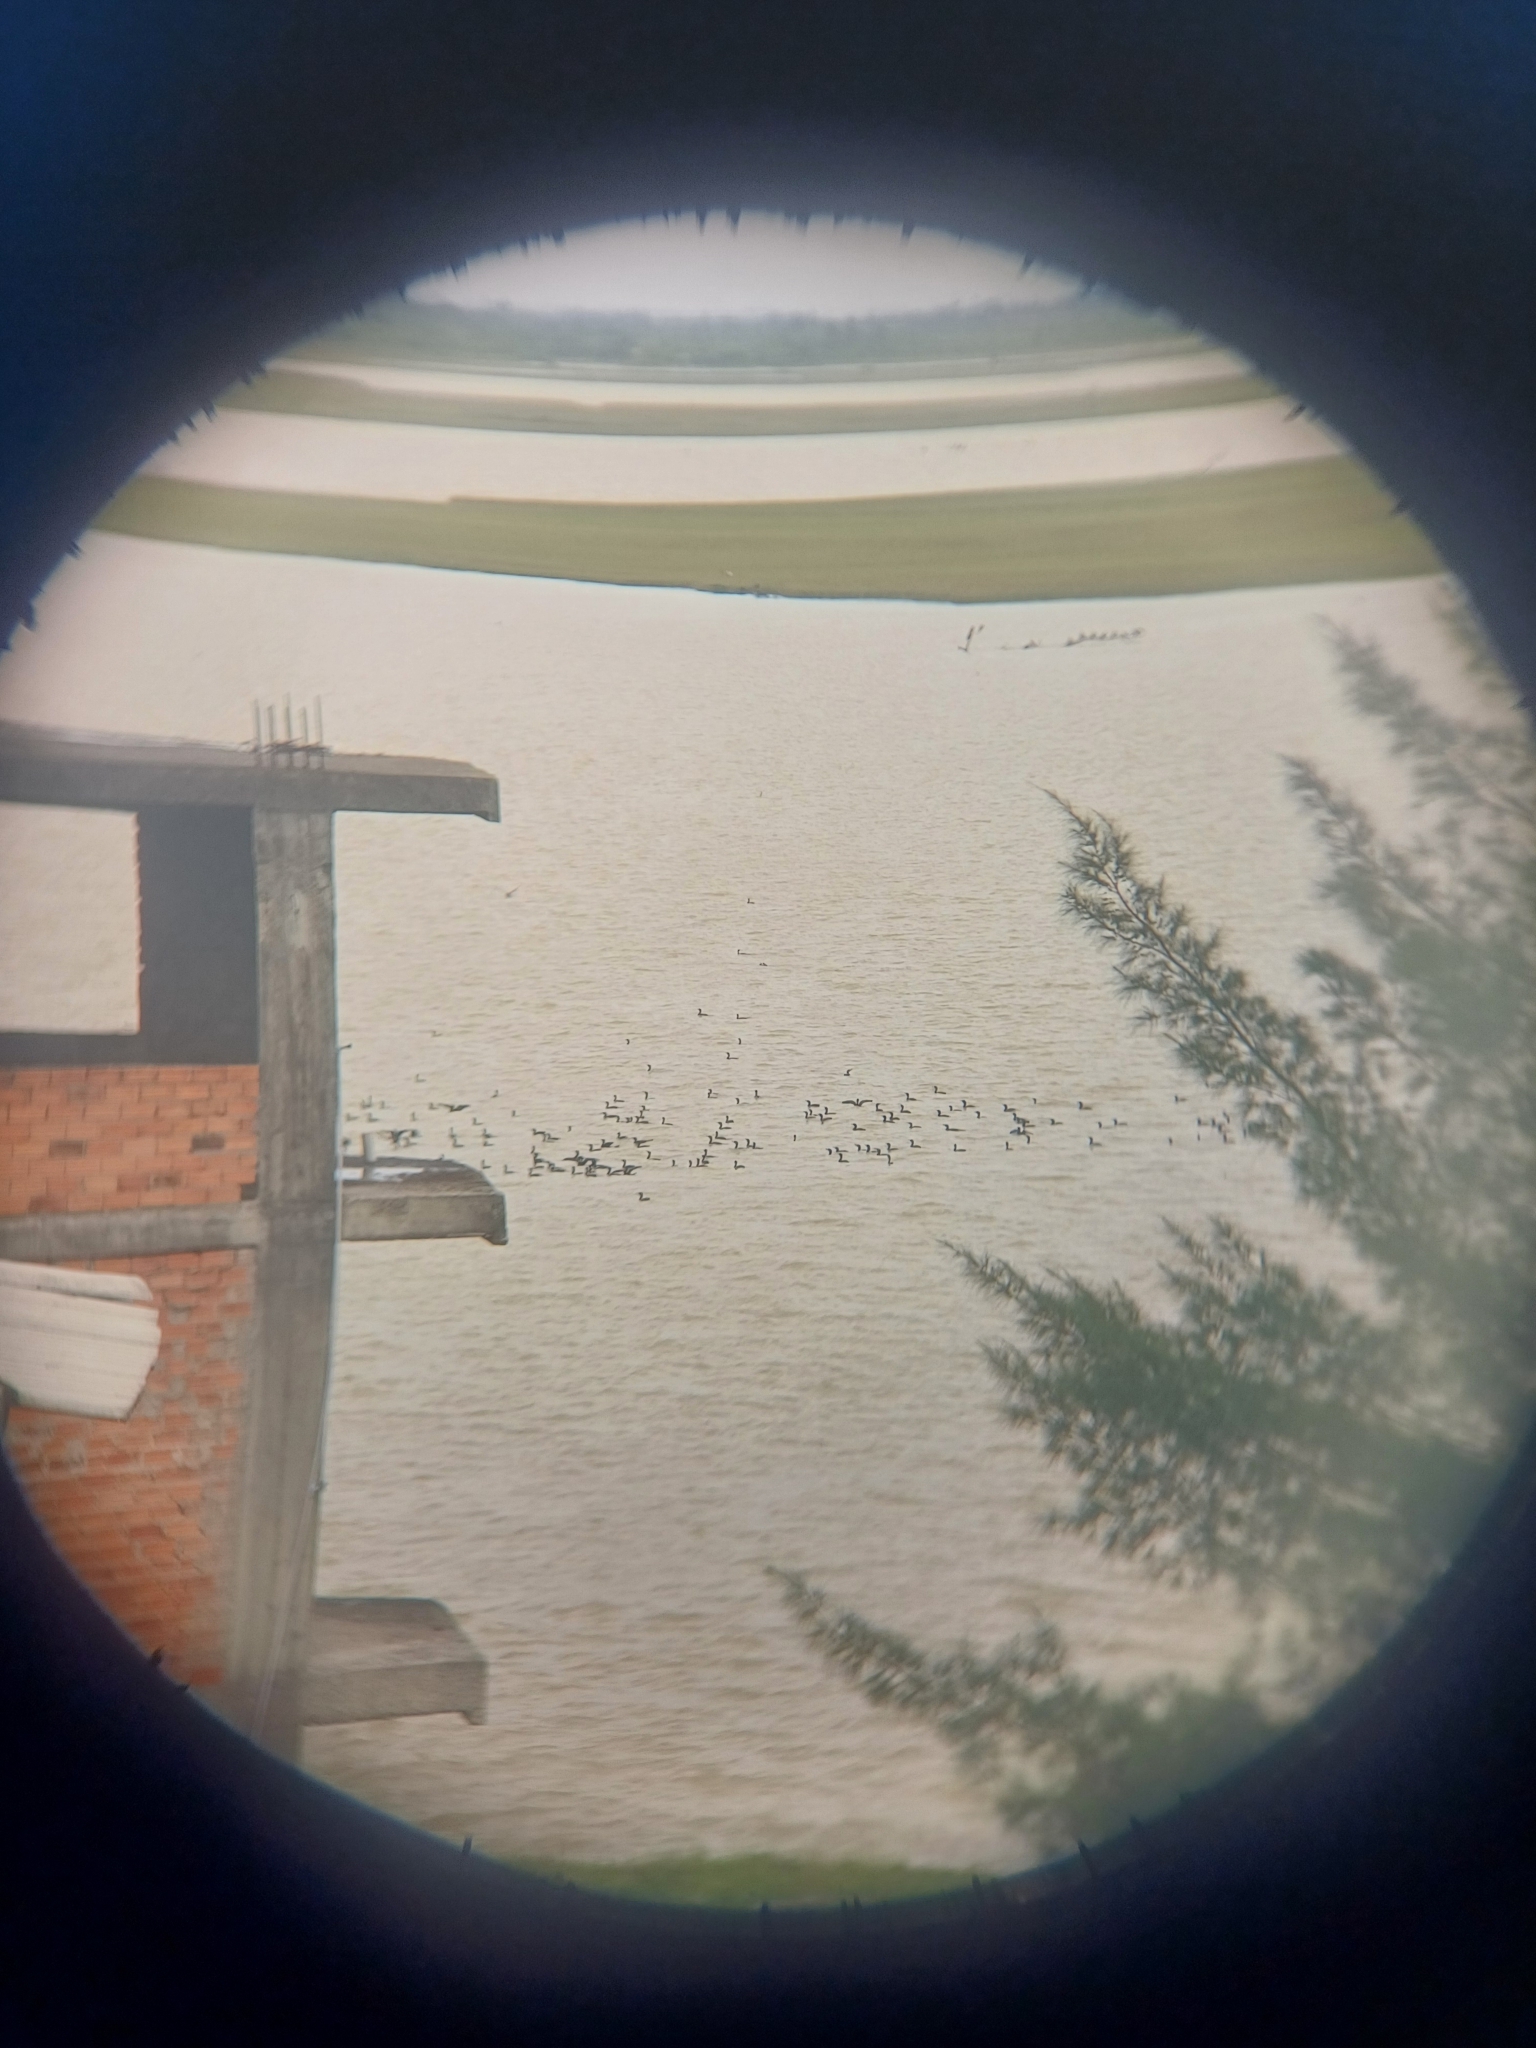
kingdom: Animalia
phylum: Chordata
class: Aves
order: Suliformes
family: Phalacrocoracidae
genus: Phalacrocorax
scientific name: Phalacrocorax brasilianus
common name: Neotropic cormorant
